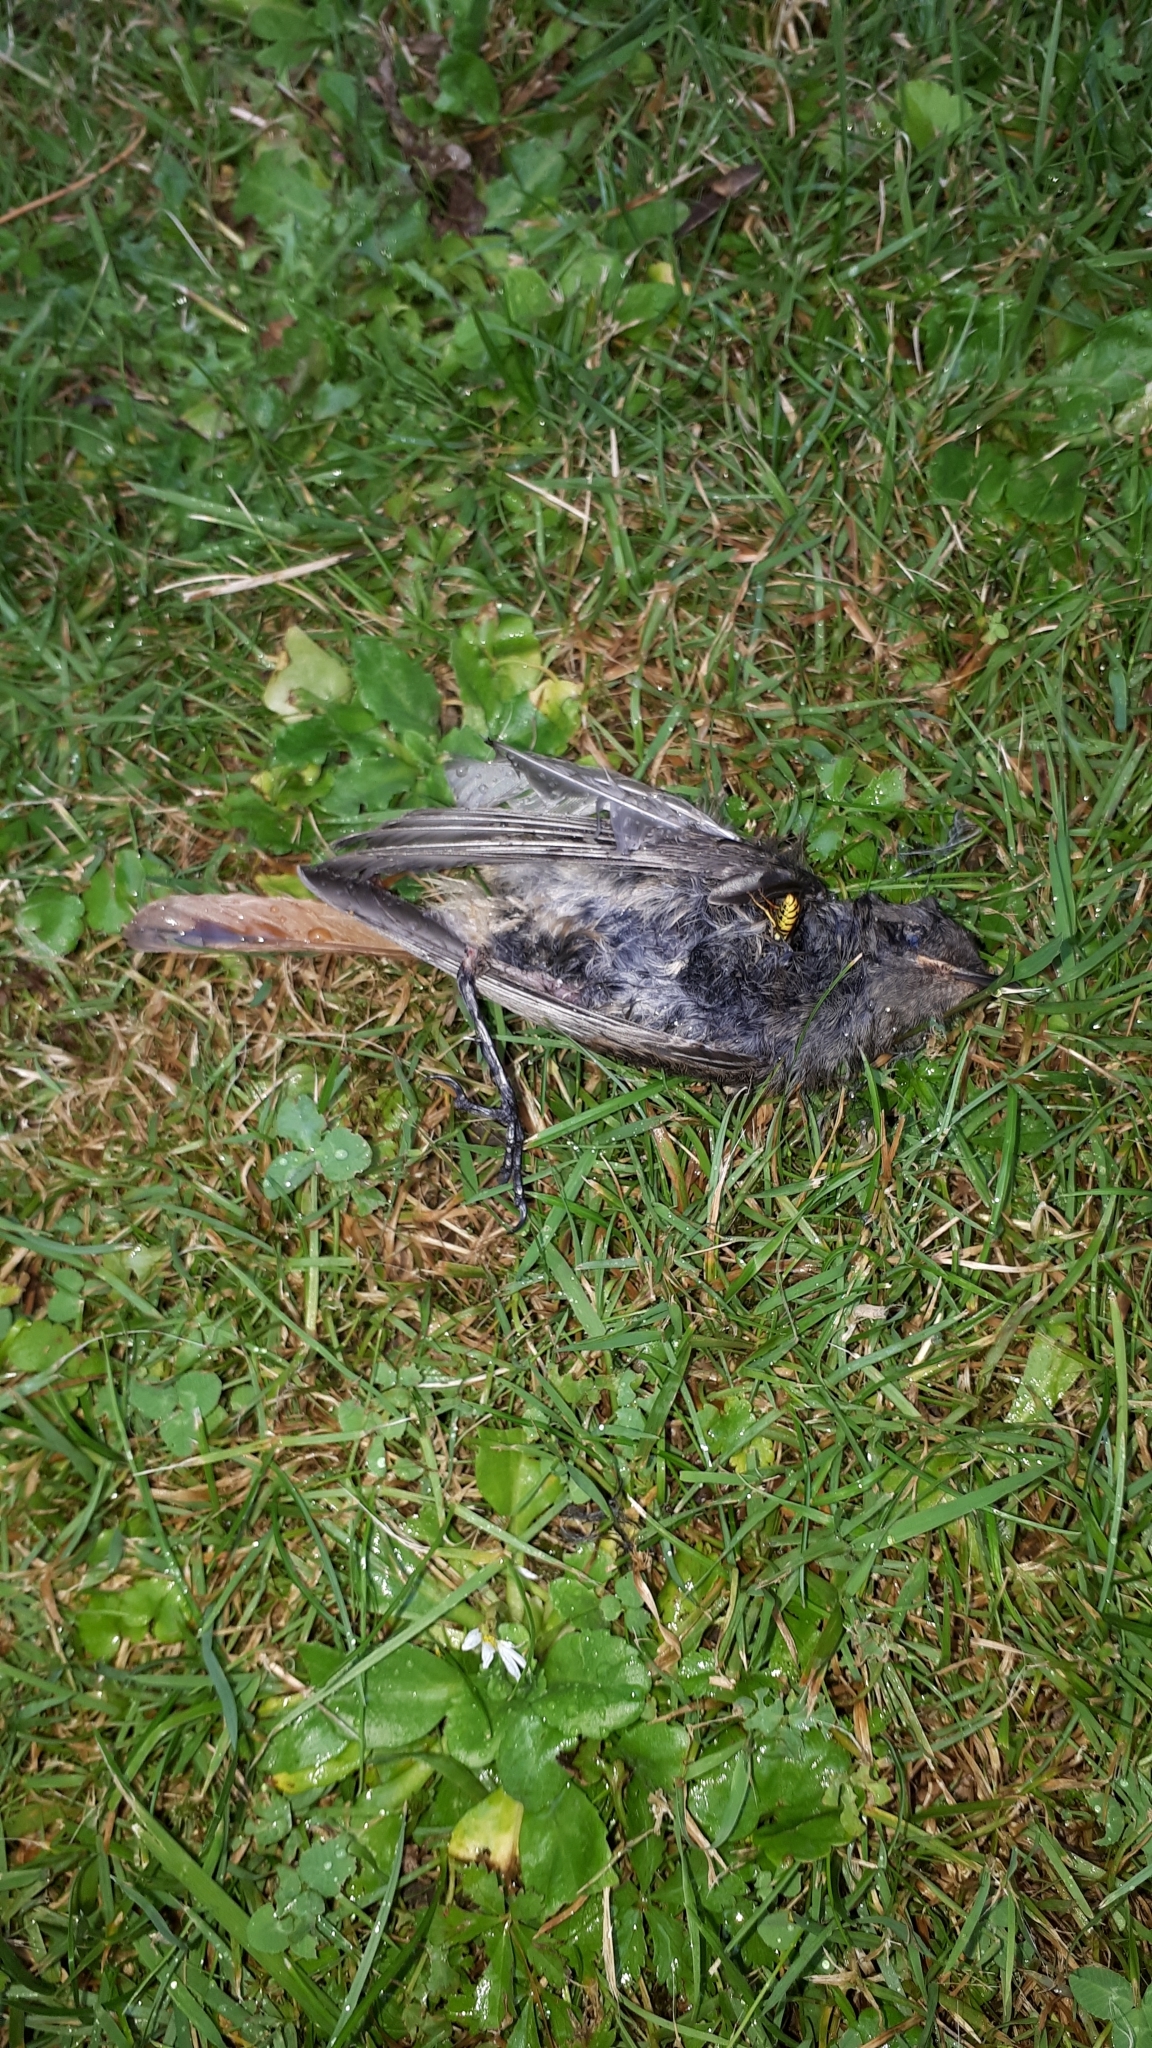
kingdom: Animalia
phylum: Chordata
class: Aves
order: Passeriformes
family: Muscicapidae
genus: Phoenicurus
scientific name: Phoenicurus ochruros
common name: Black redstart
